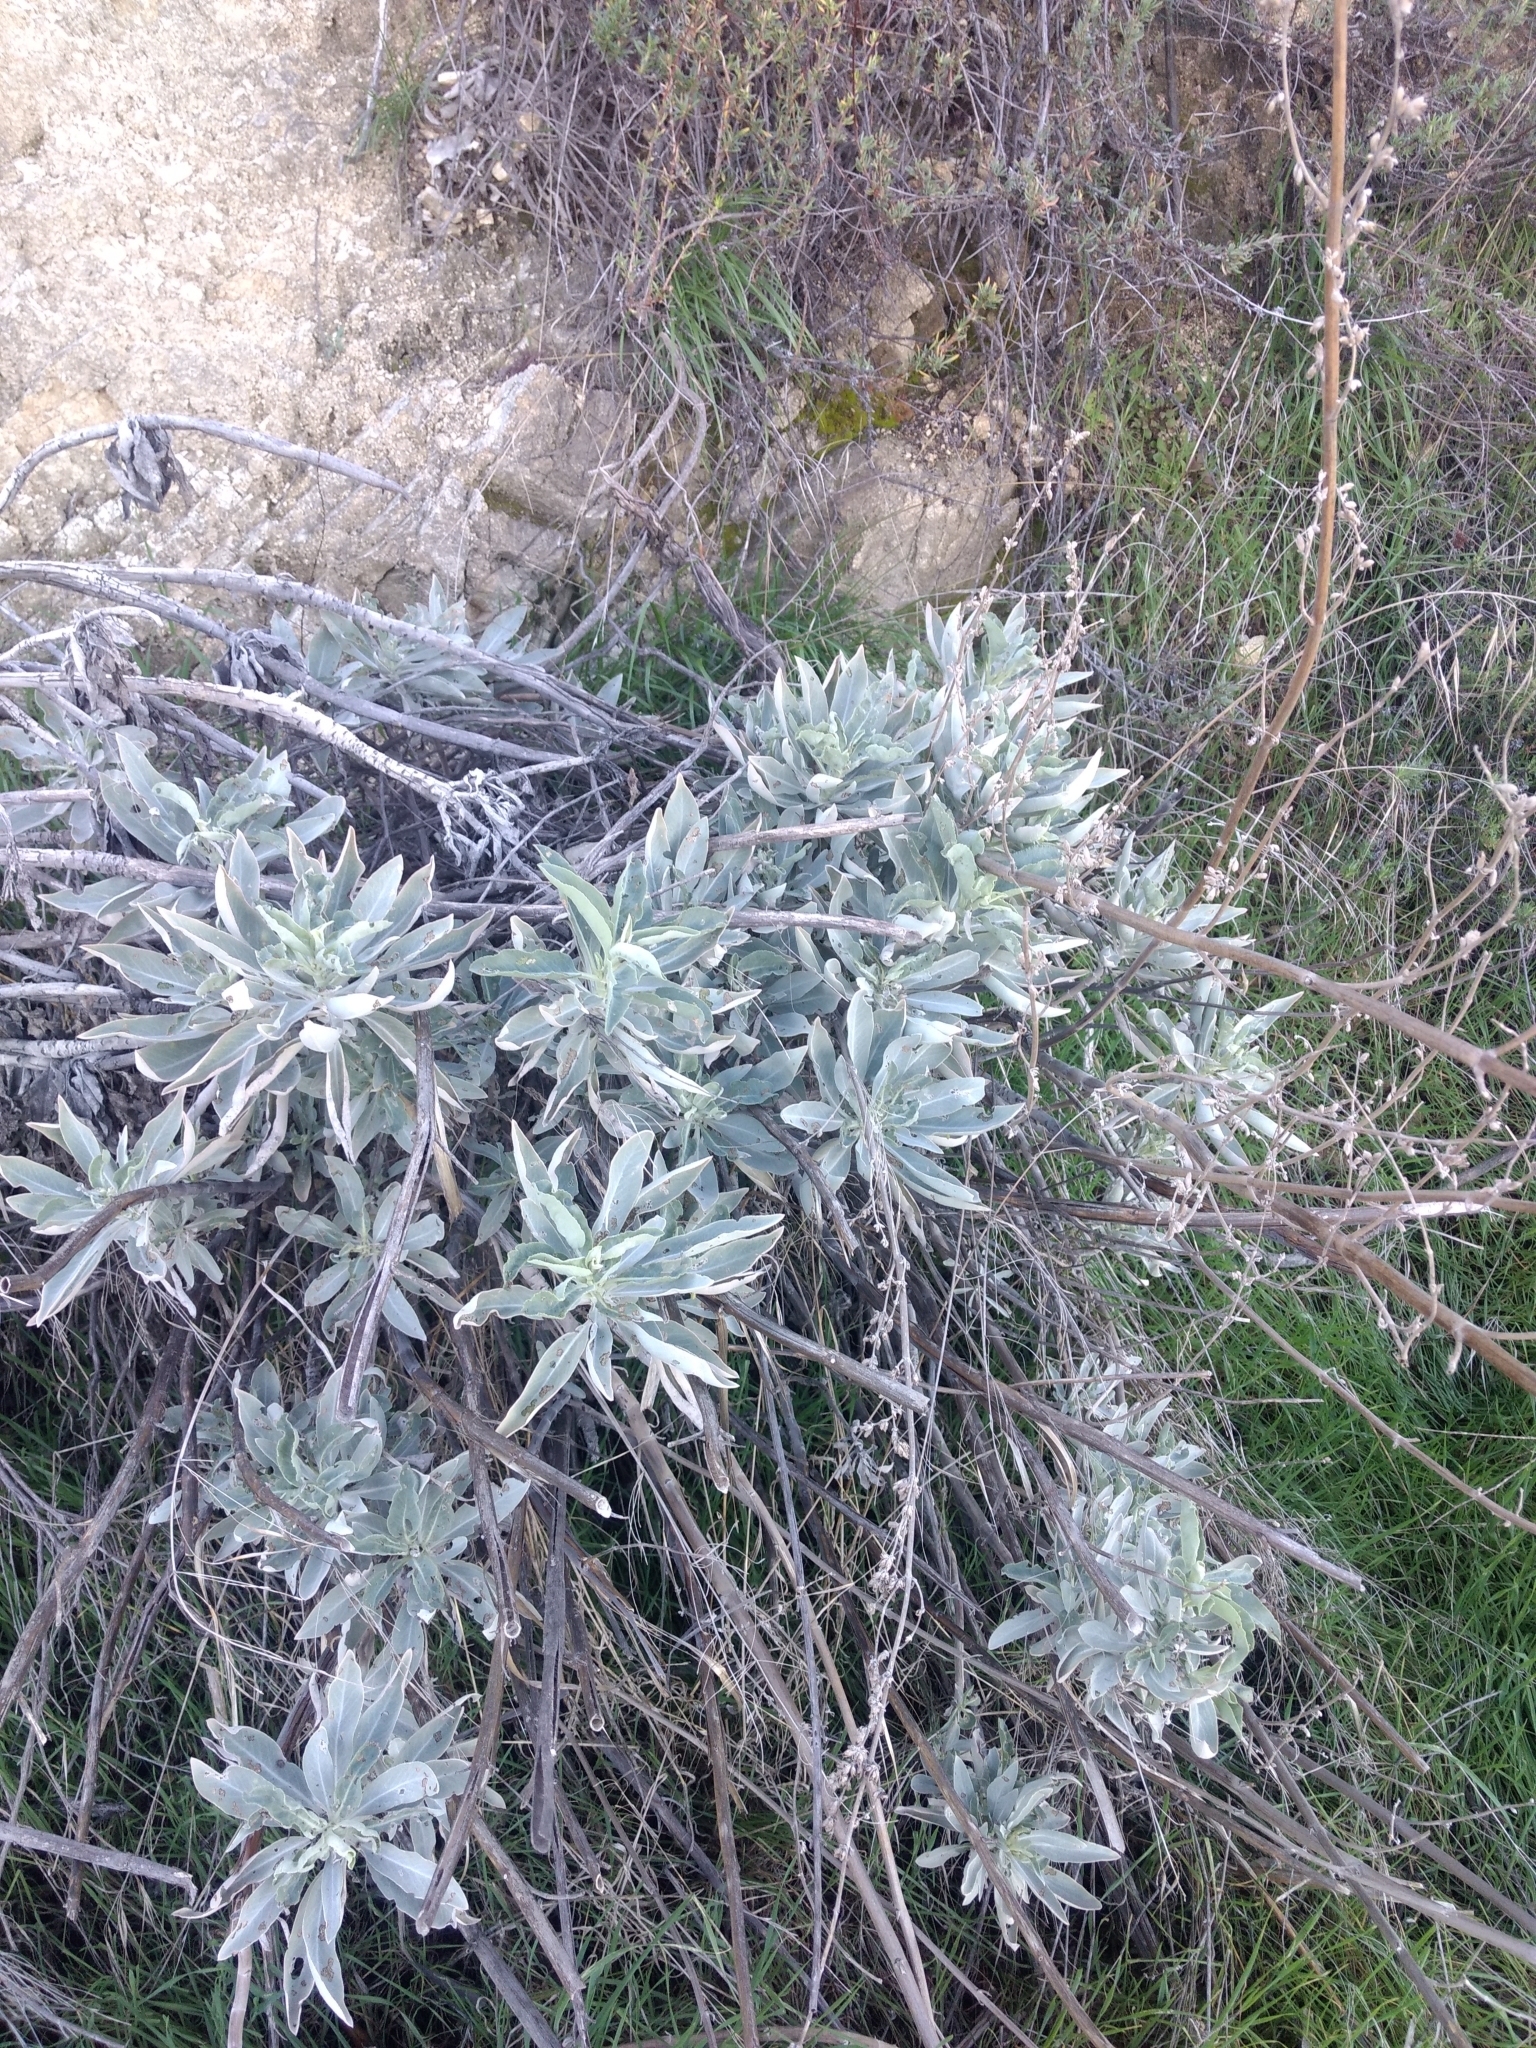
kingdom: Plantae
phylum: Tracheophyta
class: Magnoliopsida
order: Lamiales
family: Lamiaceae
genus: Salvia
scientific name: Salvia apiana
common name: White sage
